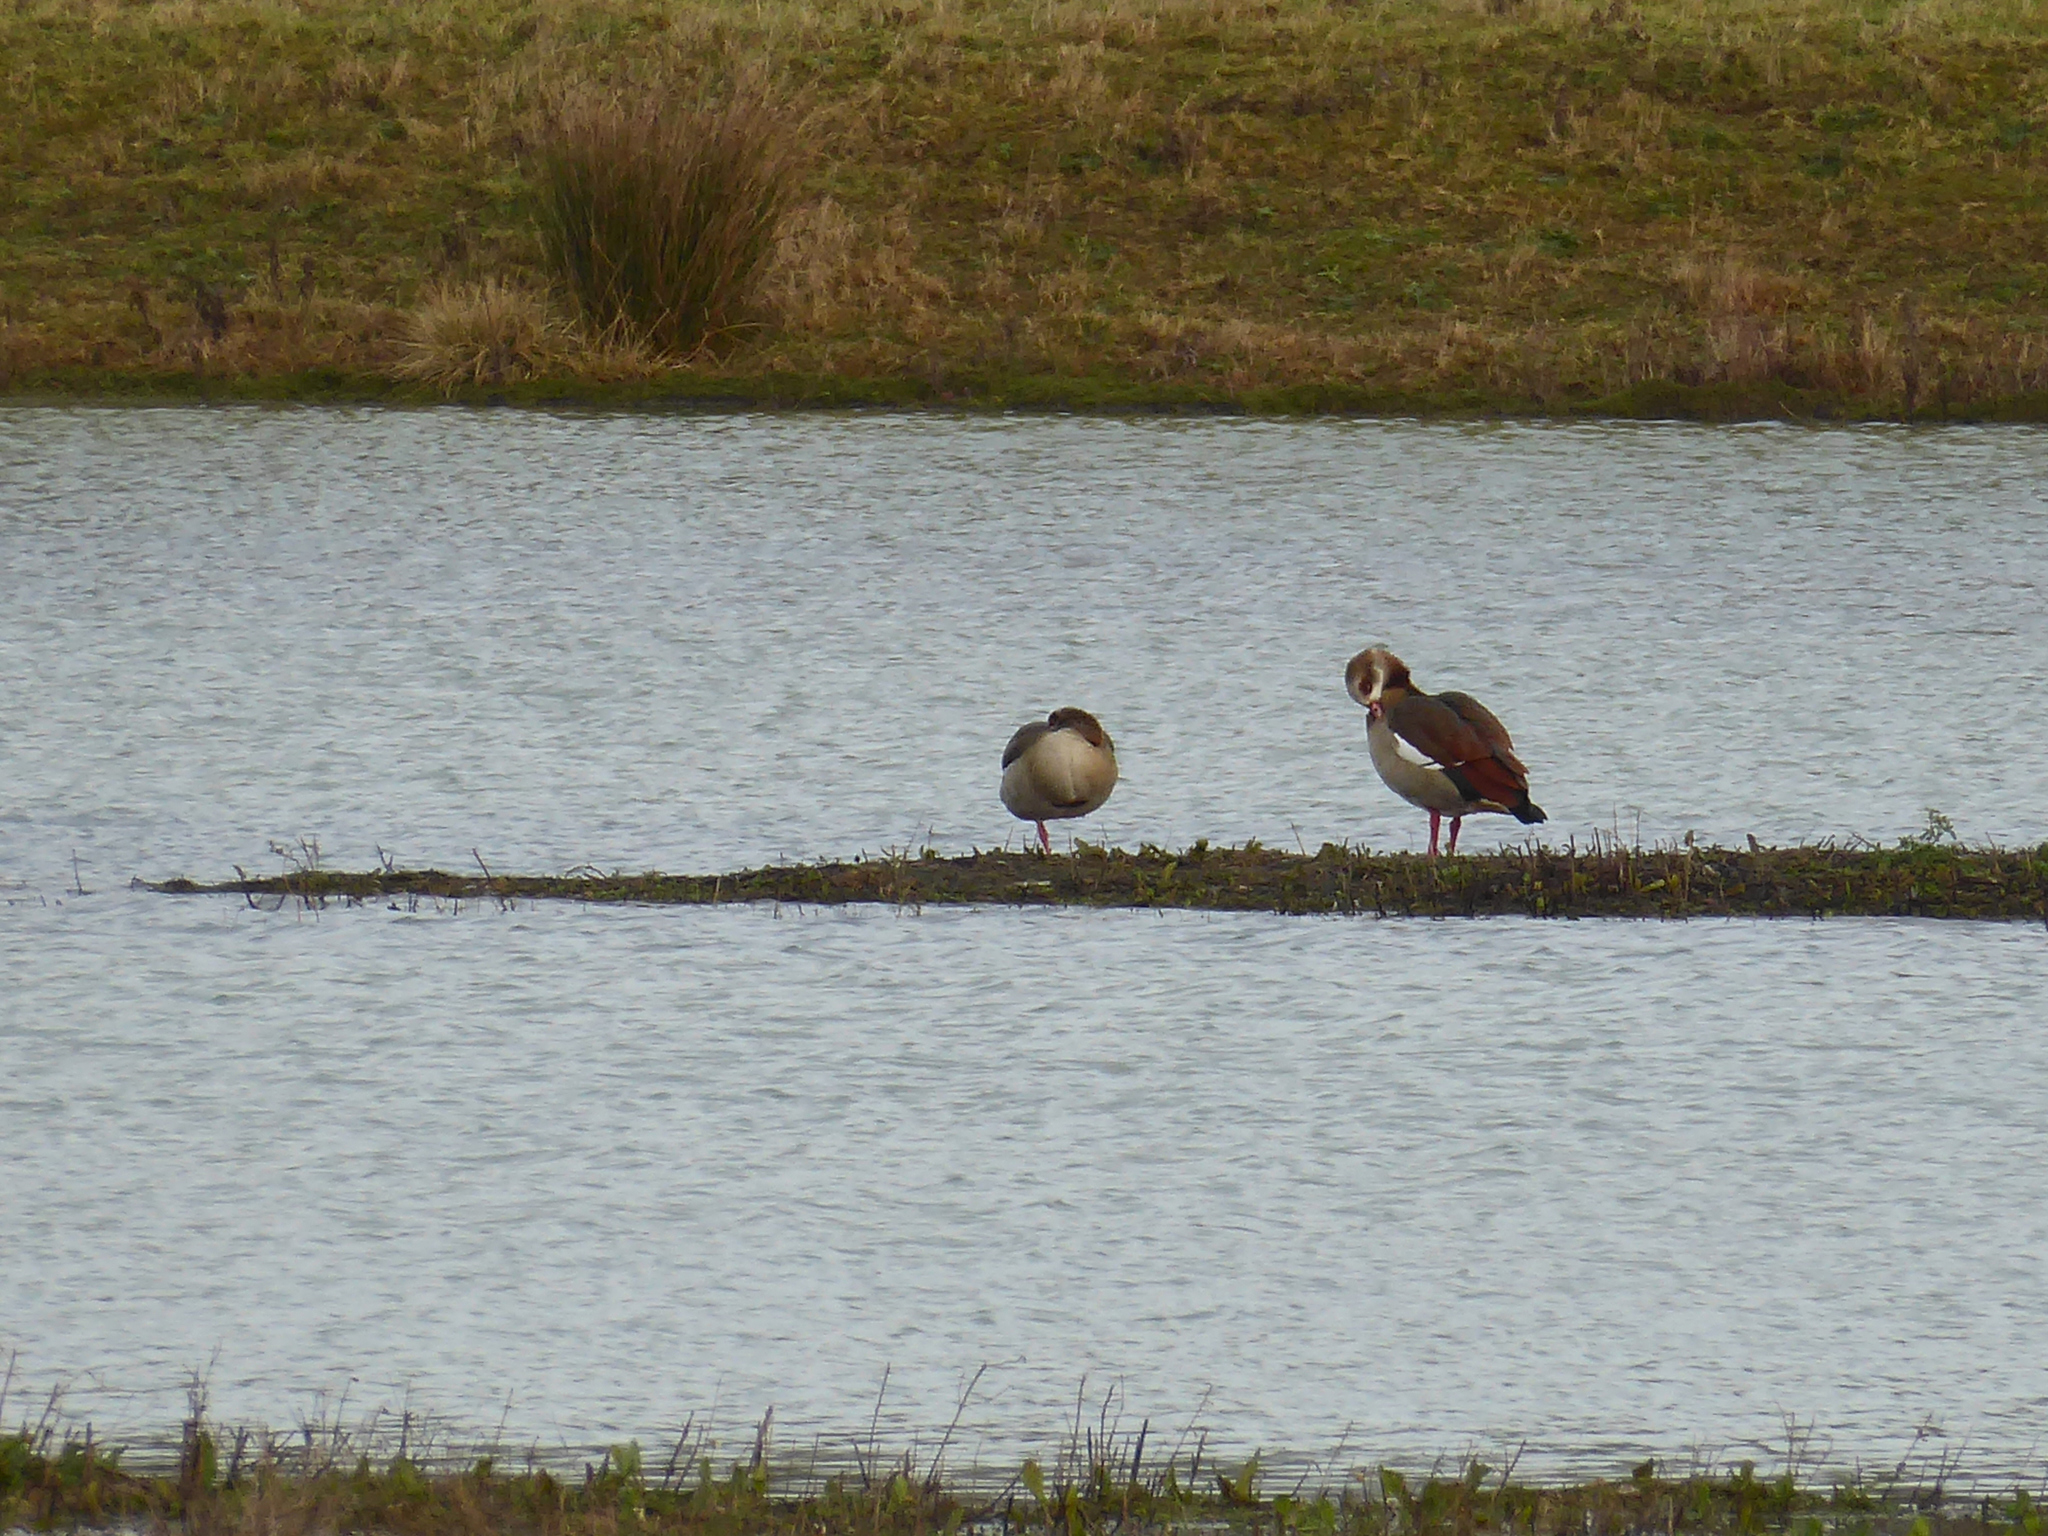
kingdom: Animalia
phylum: Chordata
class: Aves
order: Anseriformes
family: Anatidae
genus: Alopochen
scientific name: Alopochen aegyptiaca
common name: Egyptian goose
